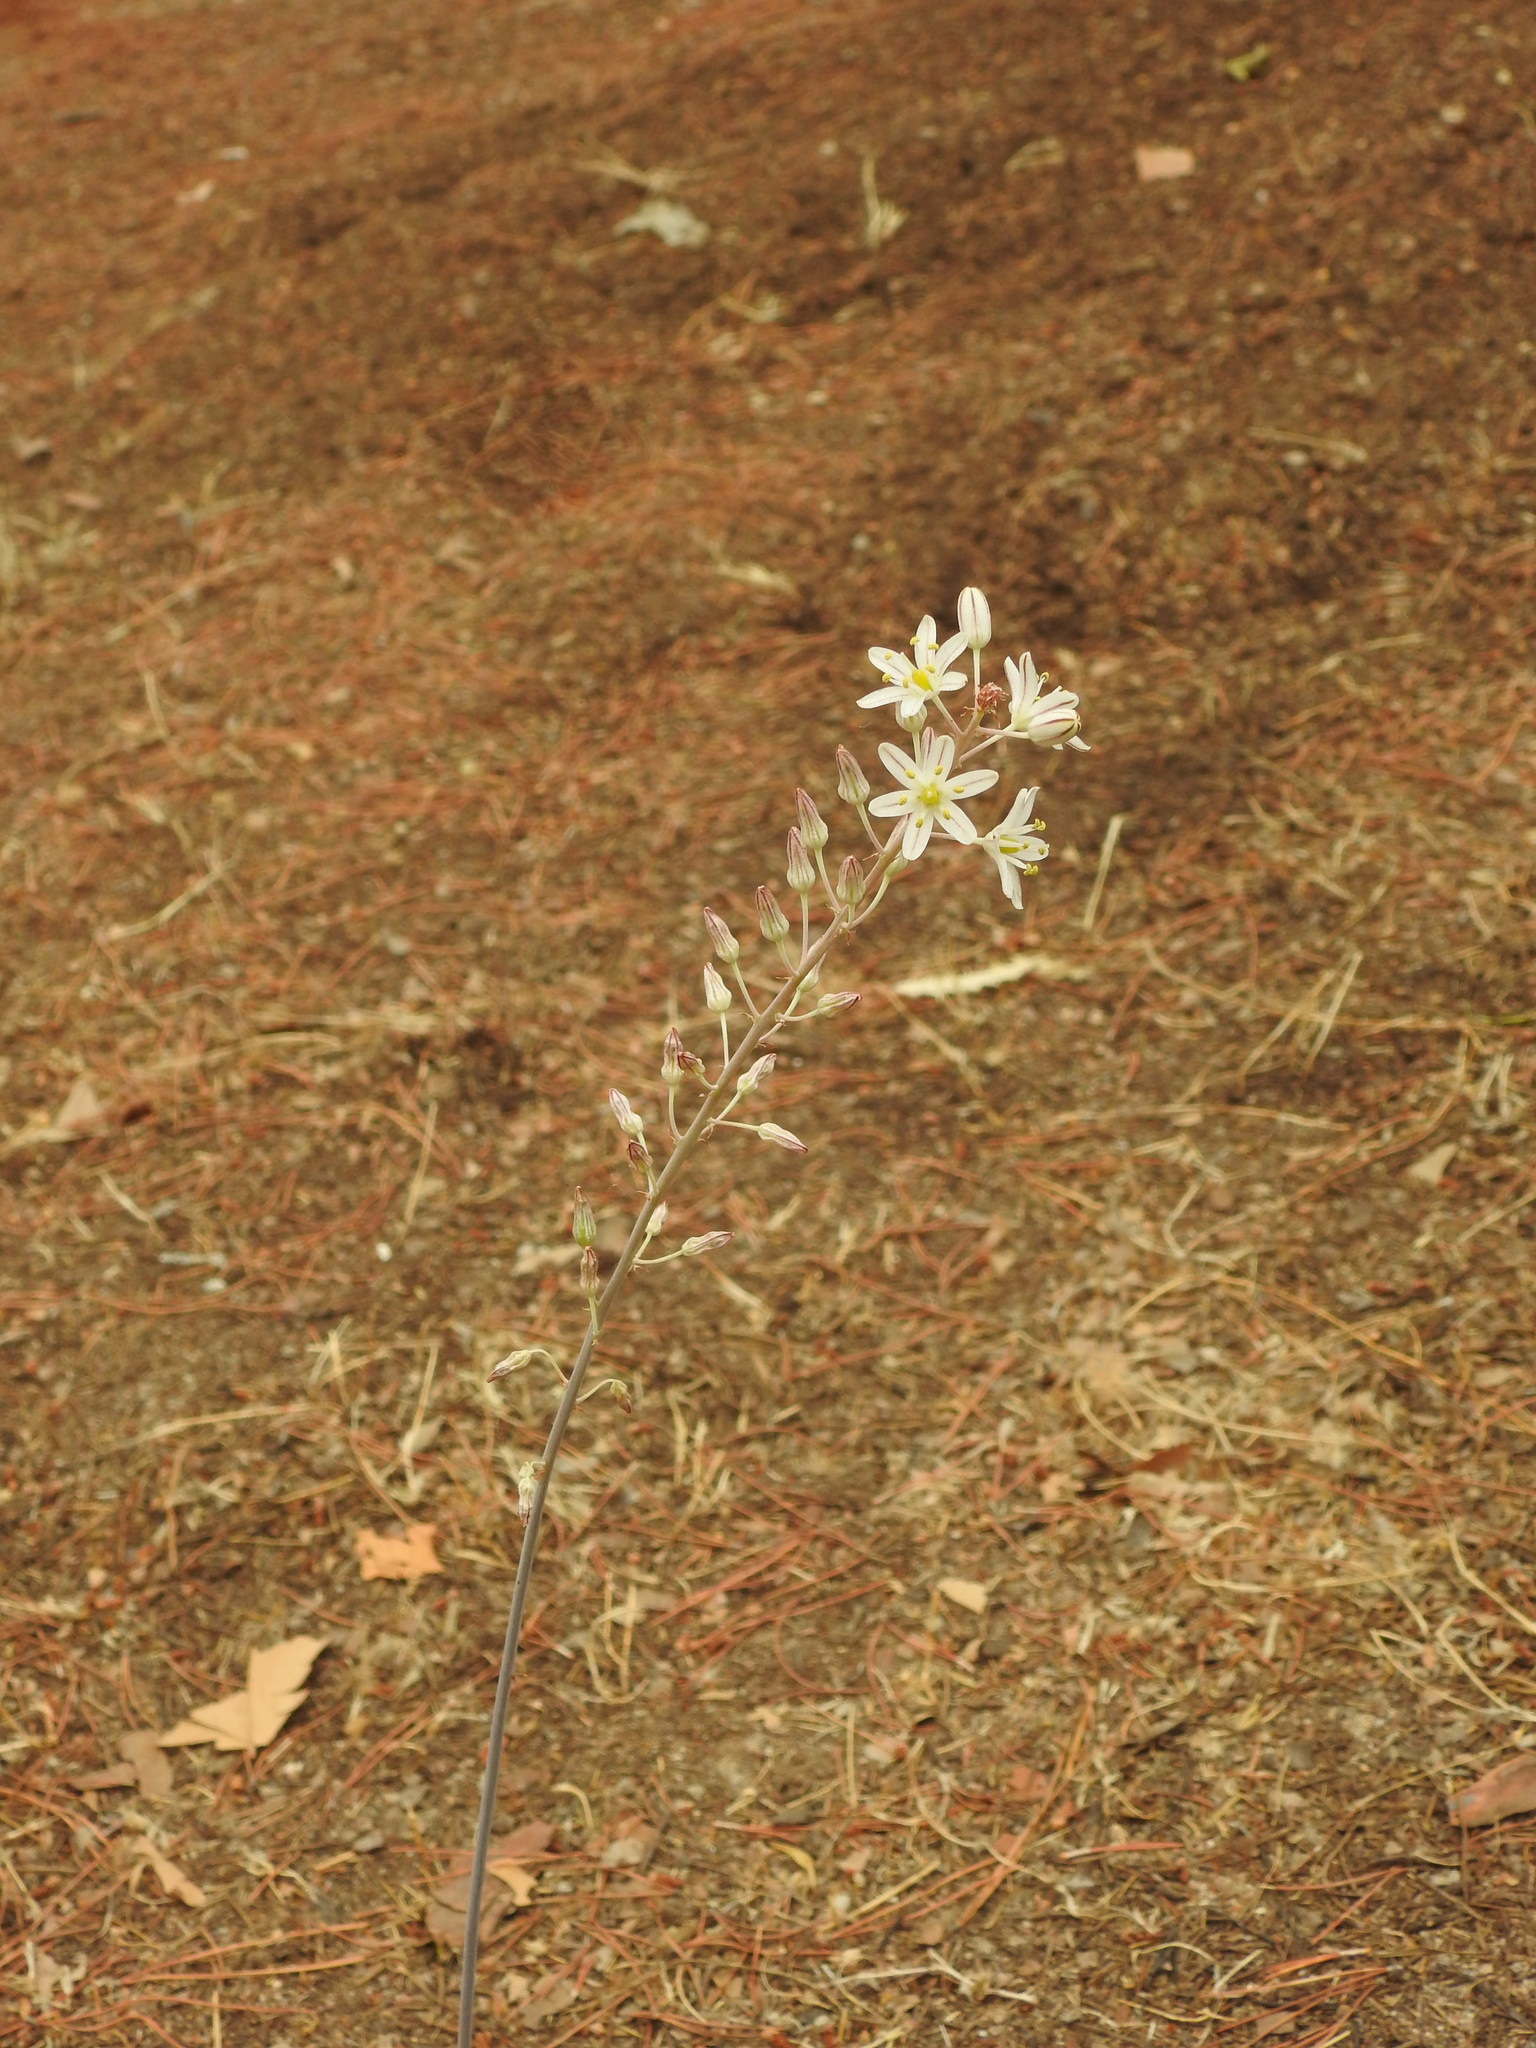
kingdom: Plantae
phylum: Tracheophyta
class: Liliopsida
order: Asparagales
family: Asparagaceae
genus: Drimia
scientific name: Drimia maritima
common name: Maritime squill
